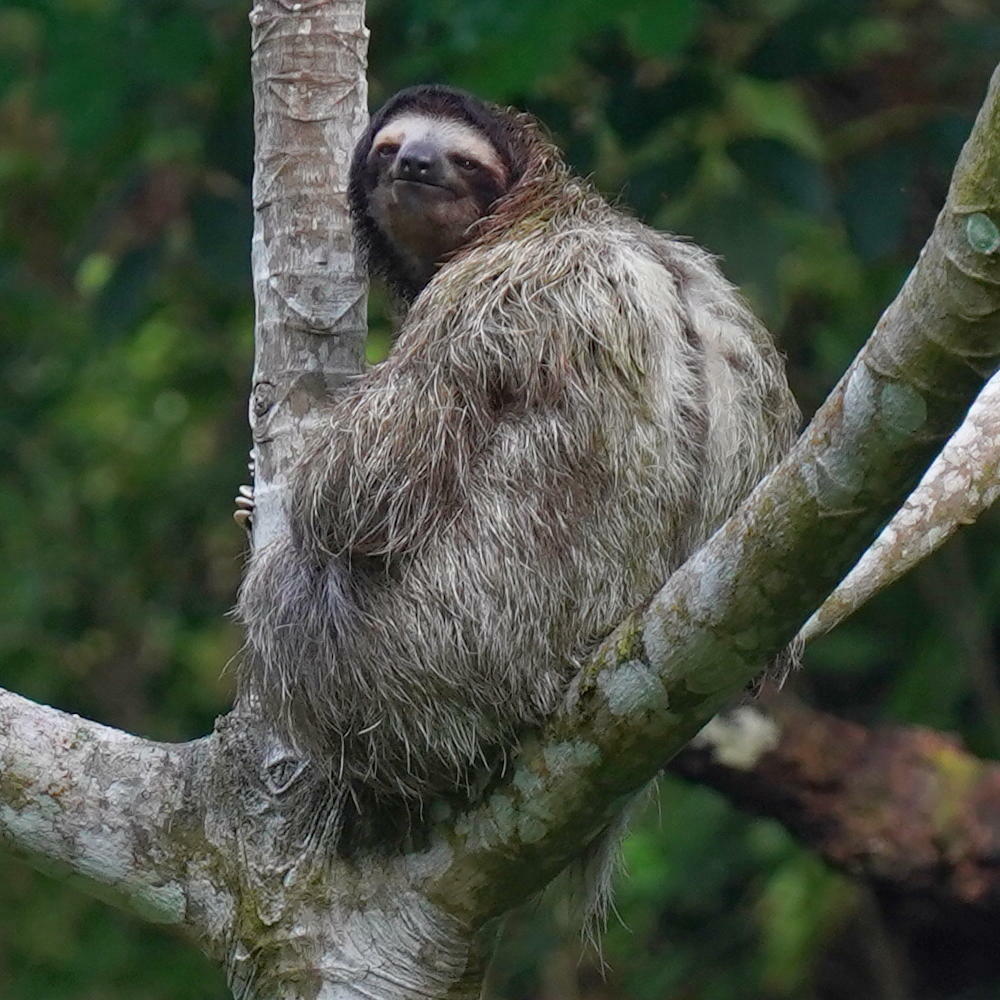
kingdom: Animalia
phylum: Chordata
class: Mammalia
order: Pilosa
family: Bradypodidae
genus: Bradypus
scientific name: Bradypus variegatus
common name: Brown-throated three-toed sloth
